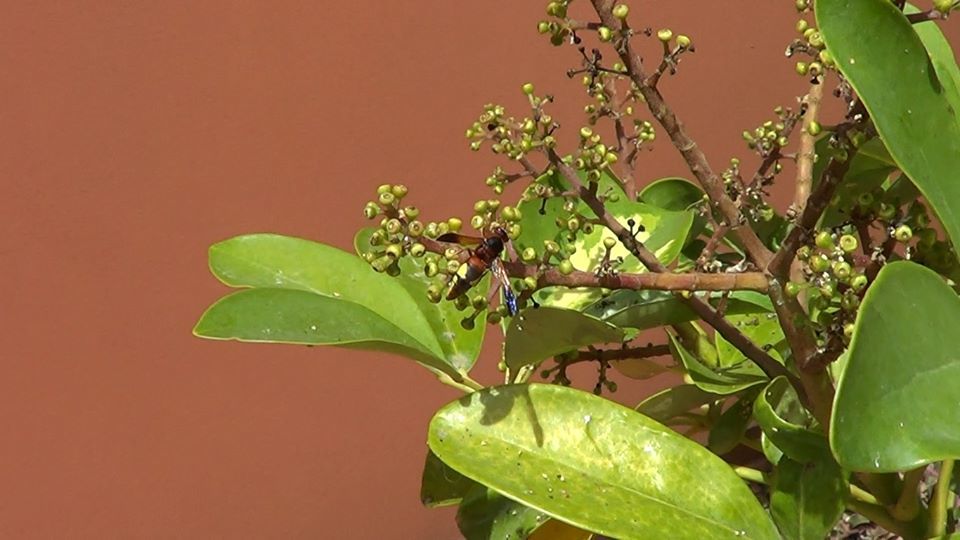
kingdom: Animalia
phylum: Arthropoda
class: Insecta
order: Hymenoptera
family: Eumenidae
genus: Rhynchium
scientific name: Rhynchium oculatum
